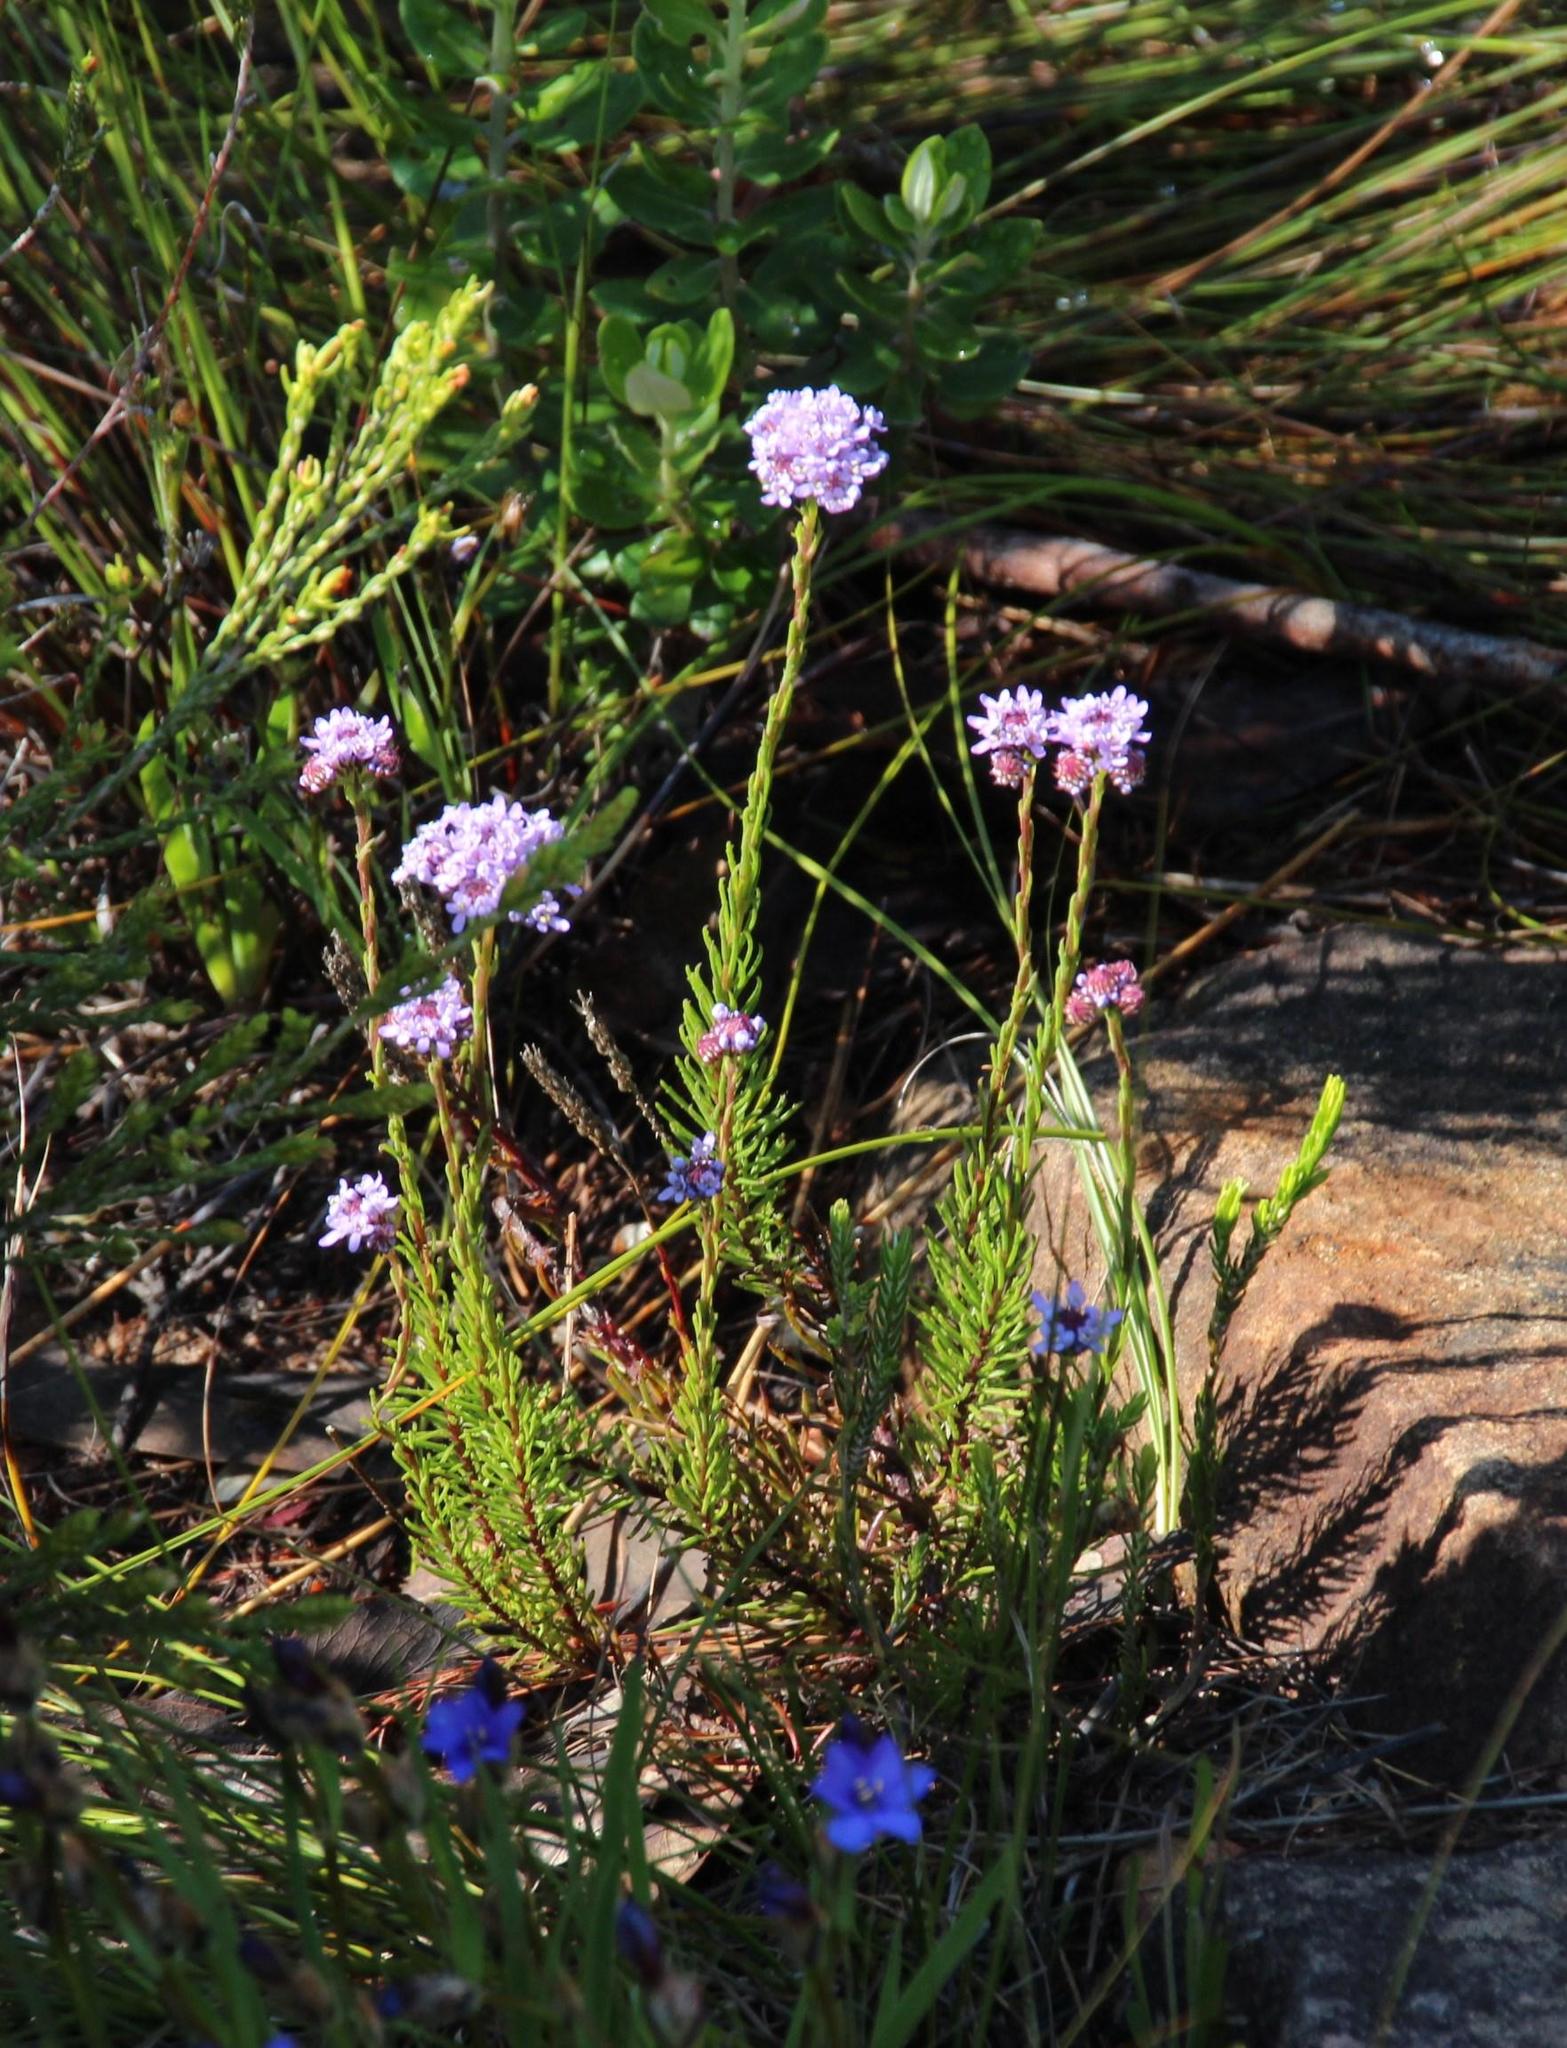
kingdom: Plantae
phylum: Tracheophyta
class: Magnoliopsida
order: Lamiales
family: Scrophulariaceae
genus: Pseudoselago
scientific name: Pseudoselago spuria
